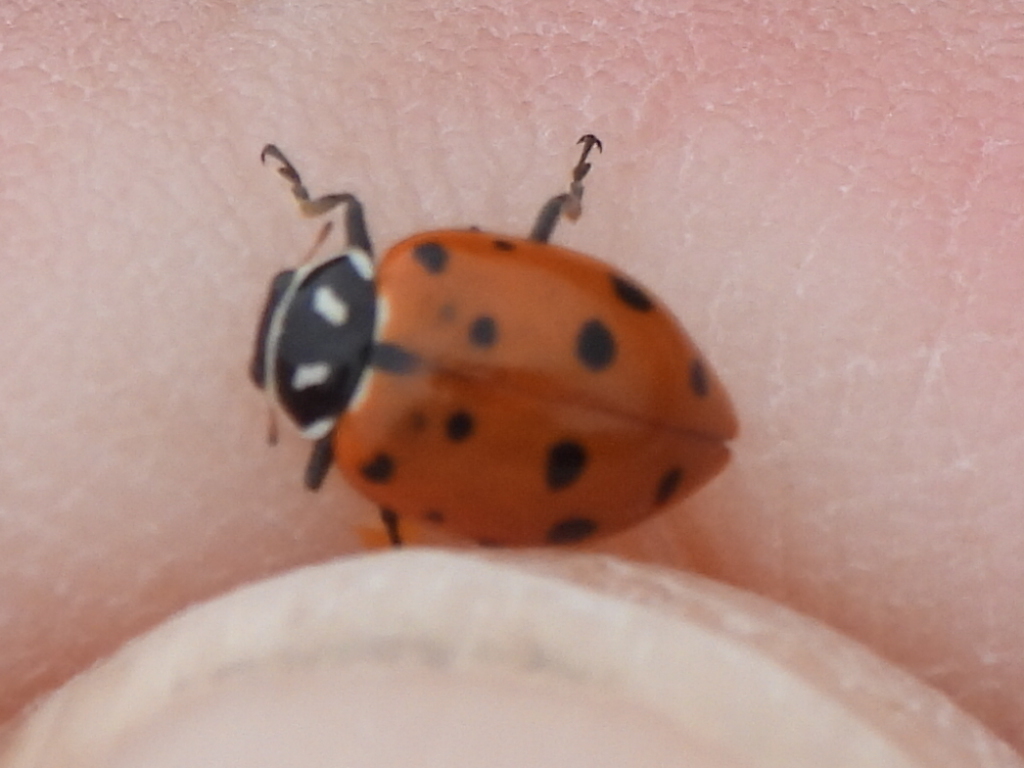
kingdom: Animalia
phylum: Arthropoda
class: Insecta
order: Coleoptera
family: Coccinellidae
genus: Hippodamia
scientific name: Hippodamia convergens
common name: Convergent lady beetle
